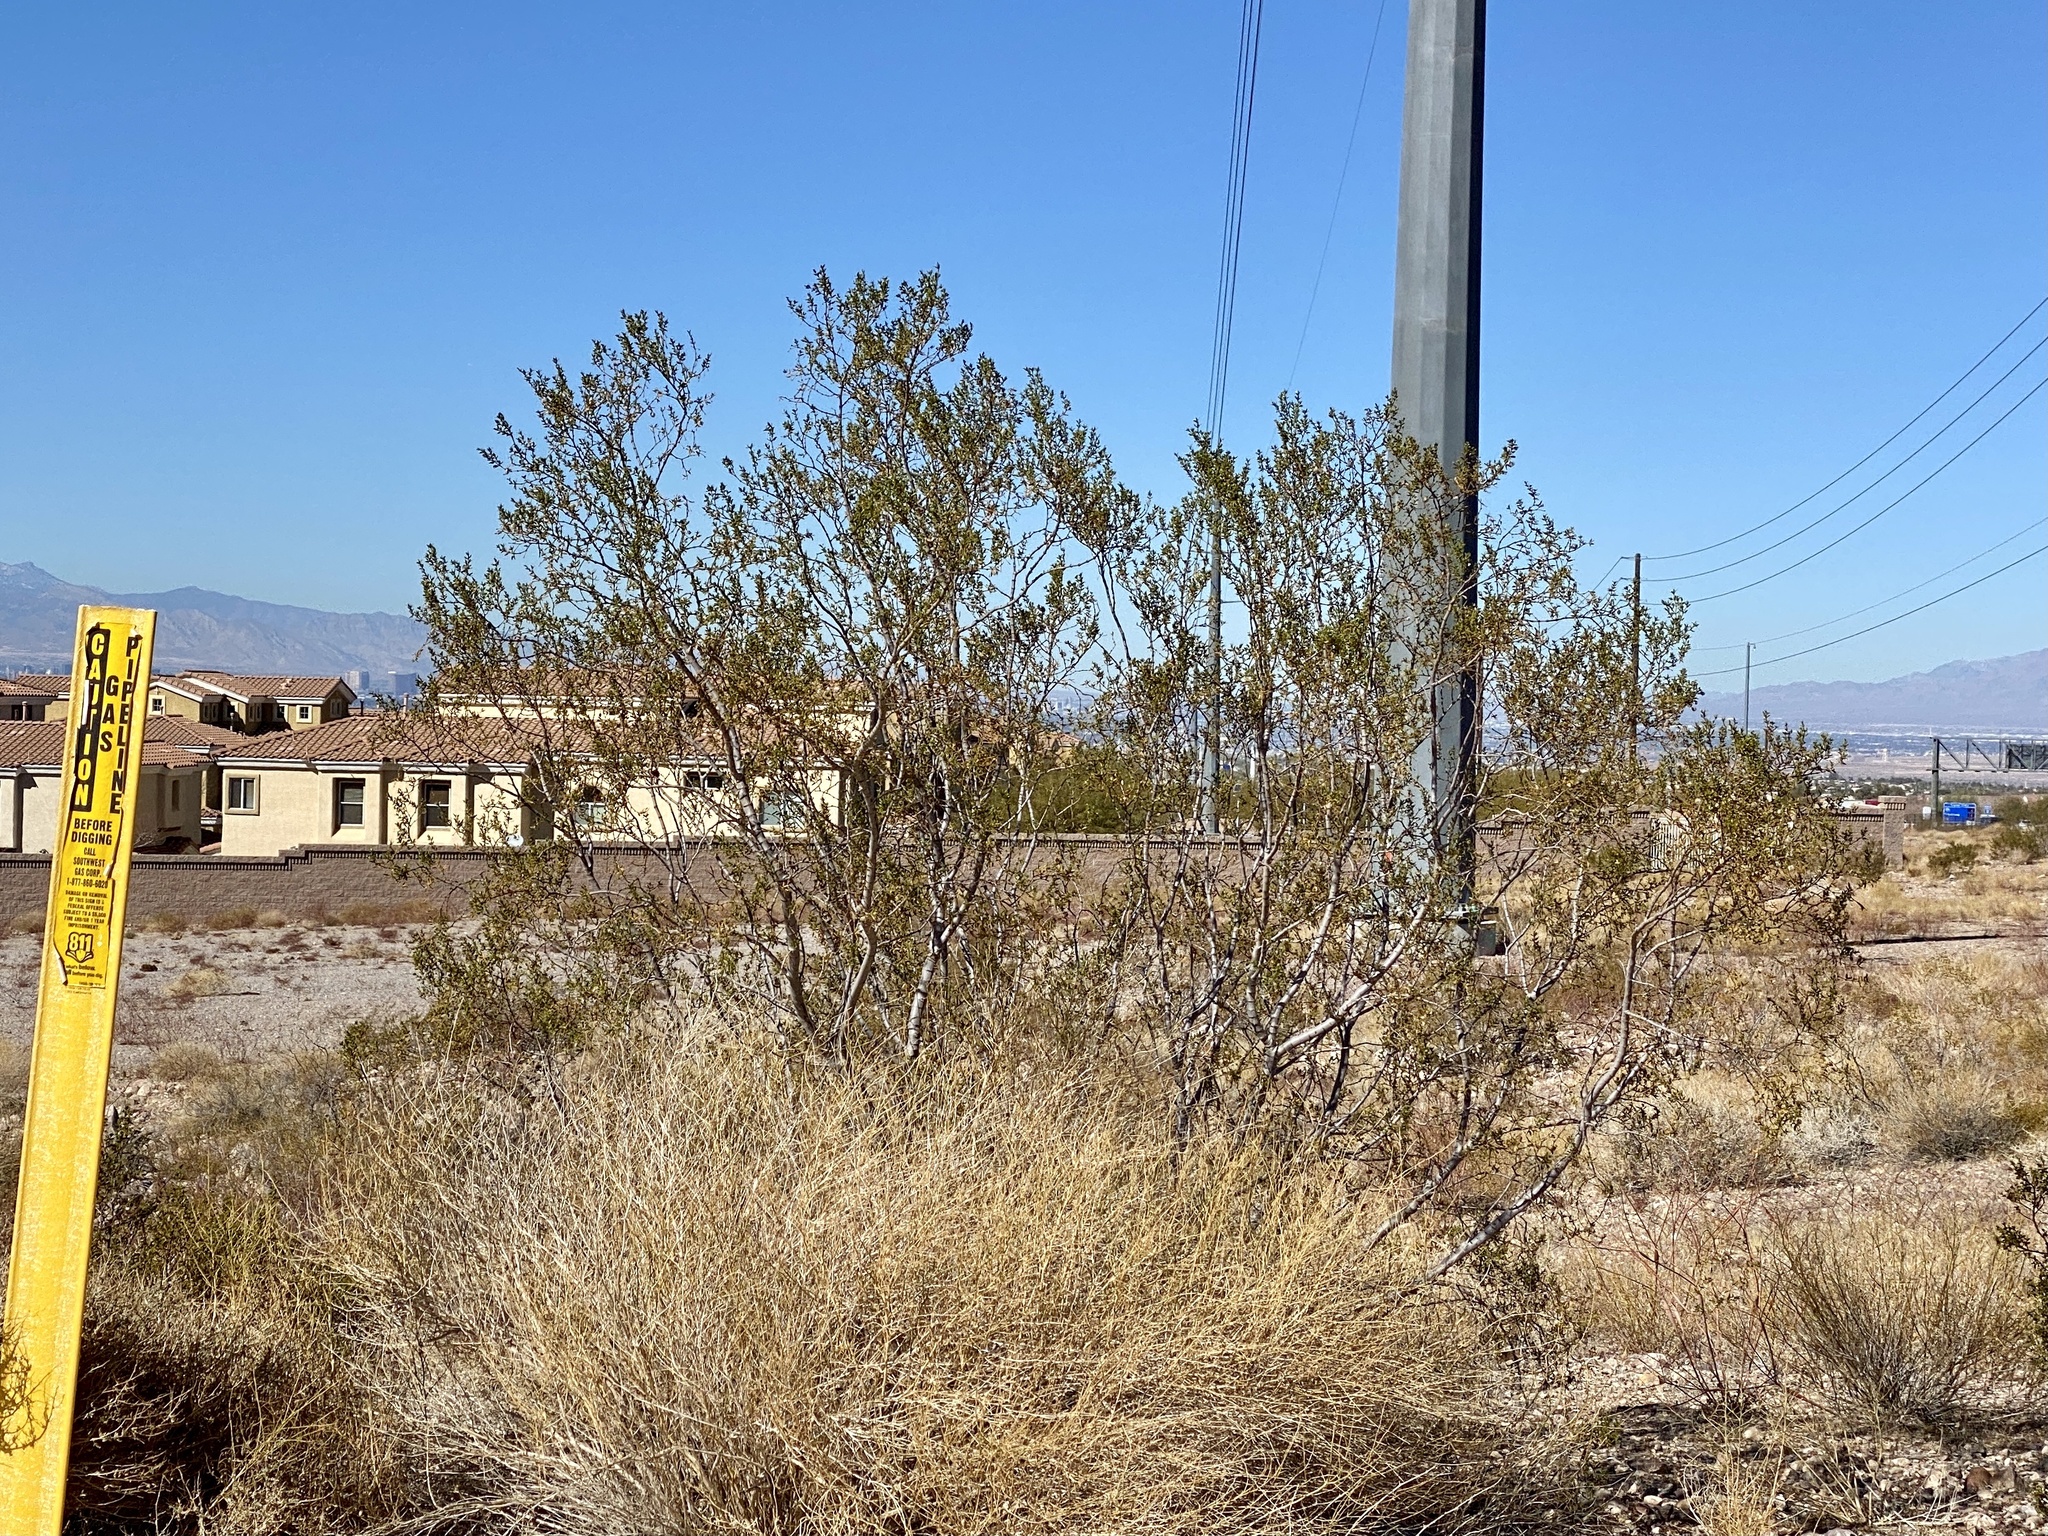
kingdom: Plantae
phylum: Tracheophyta
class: Magnoliopsida
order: Zygophyllales
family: Zygophyllaceae
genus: Larrea
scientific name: Larrea tridentata
